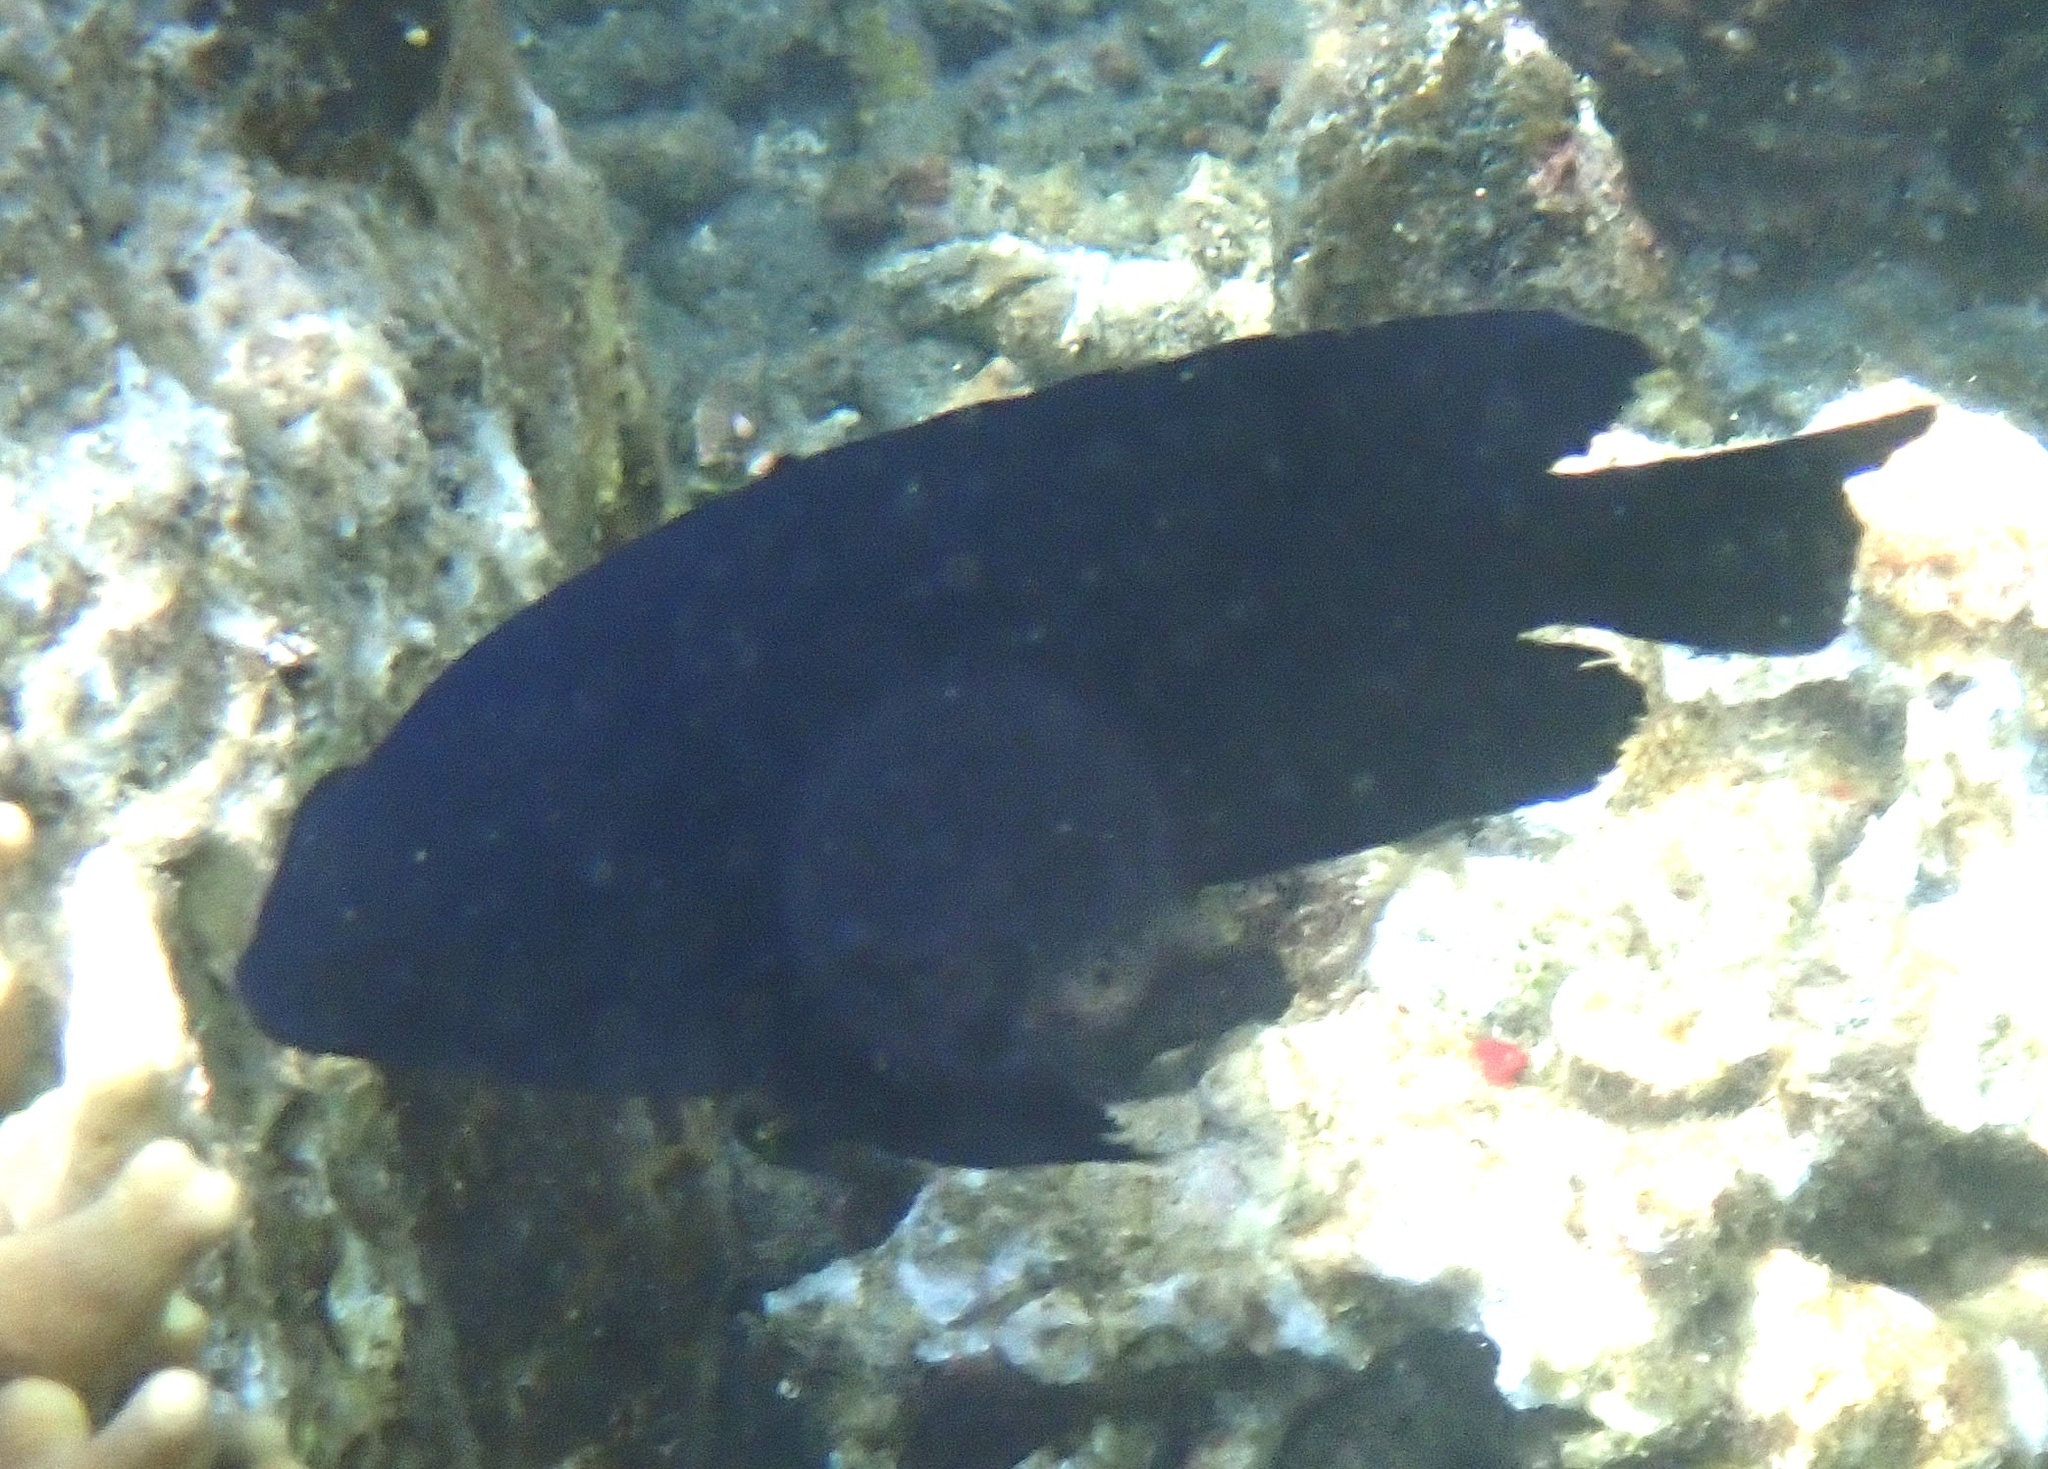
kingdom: Animalia
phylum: Chordata
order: Perciformes
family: Pomacentridae
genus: Neoglyphidodon
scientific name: Neoglyphidodon melas
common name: Black damsel
